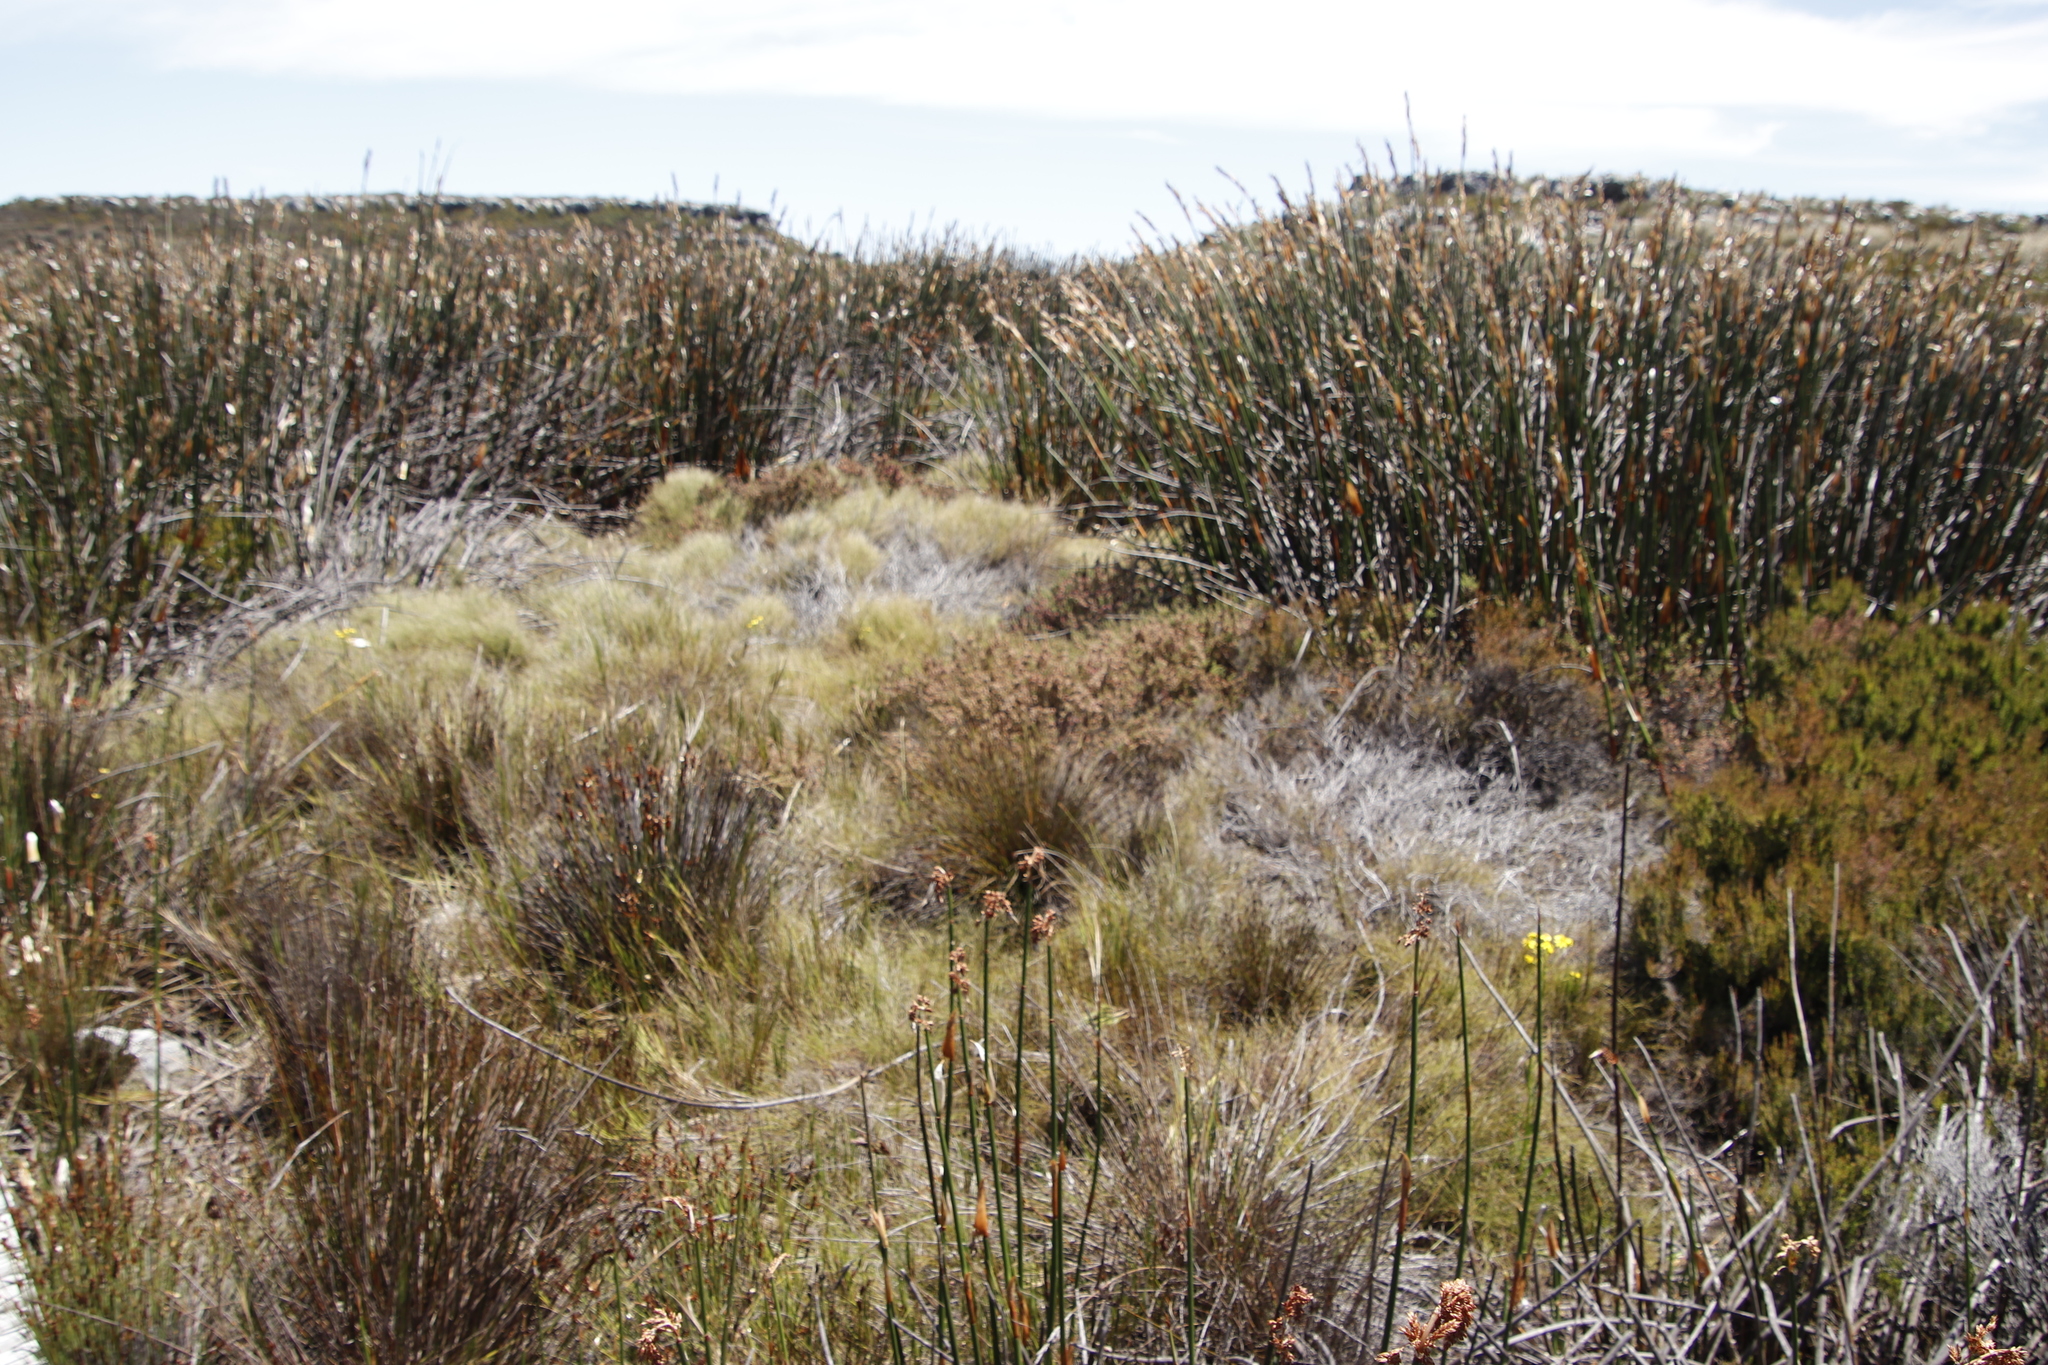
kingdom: Plantae
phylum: Tracheophyta
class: Magnoliopsida
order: Ericales
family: Ericaceae
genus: Erica
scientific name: Erica mollis
